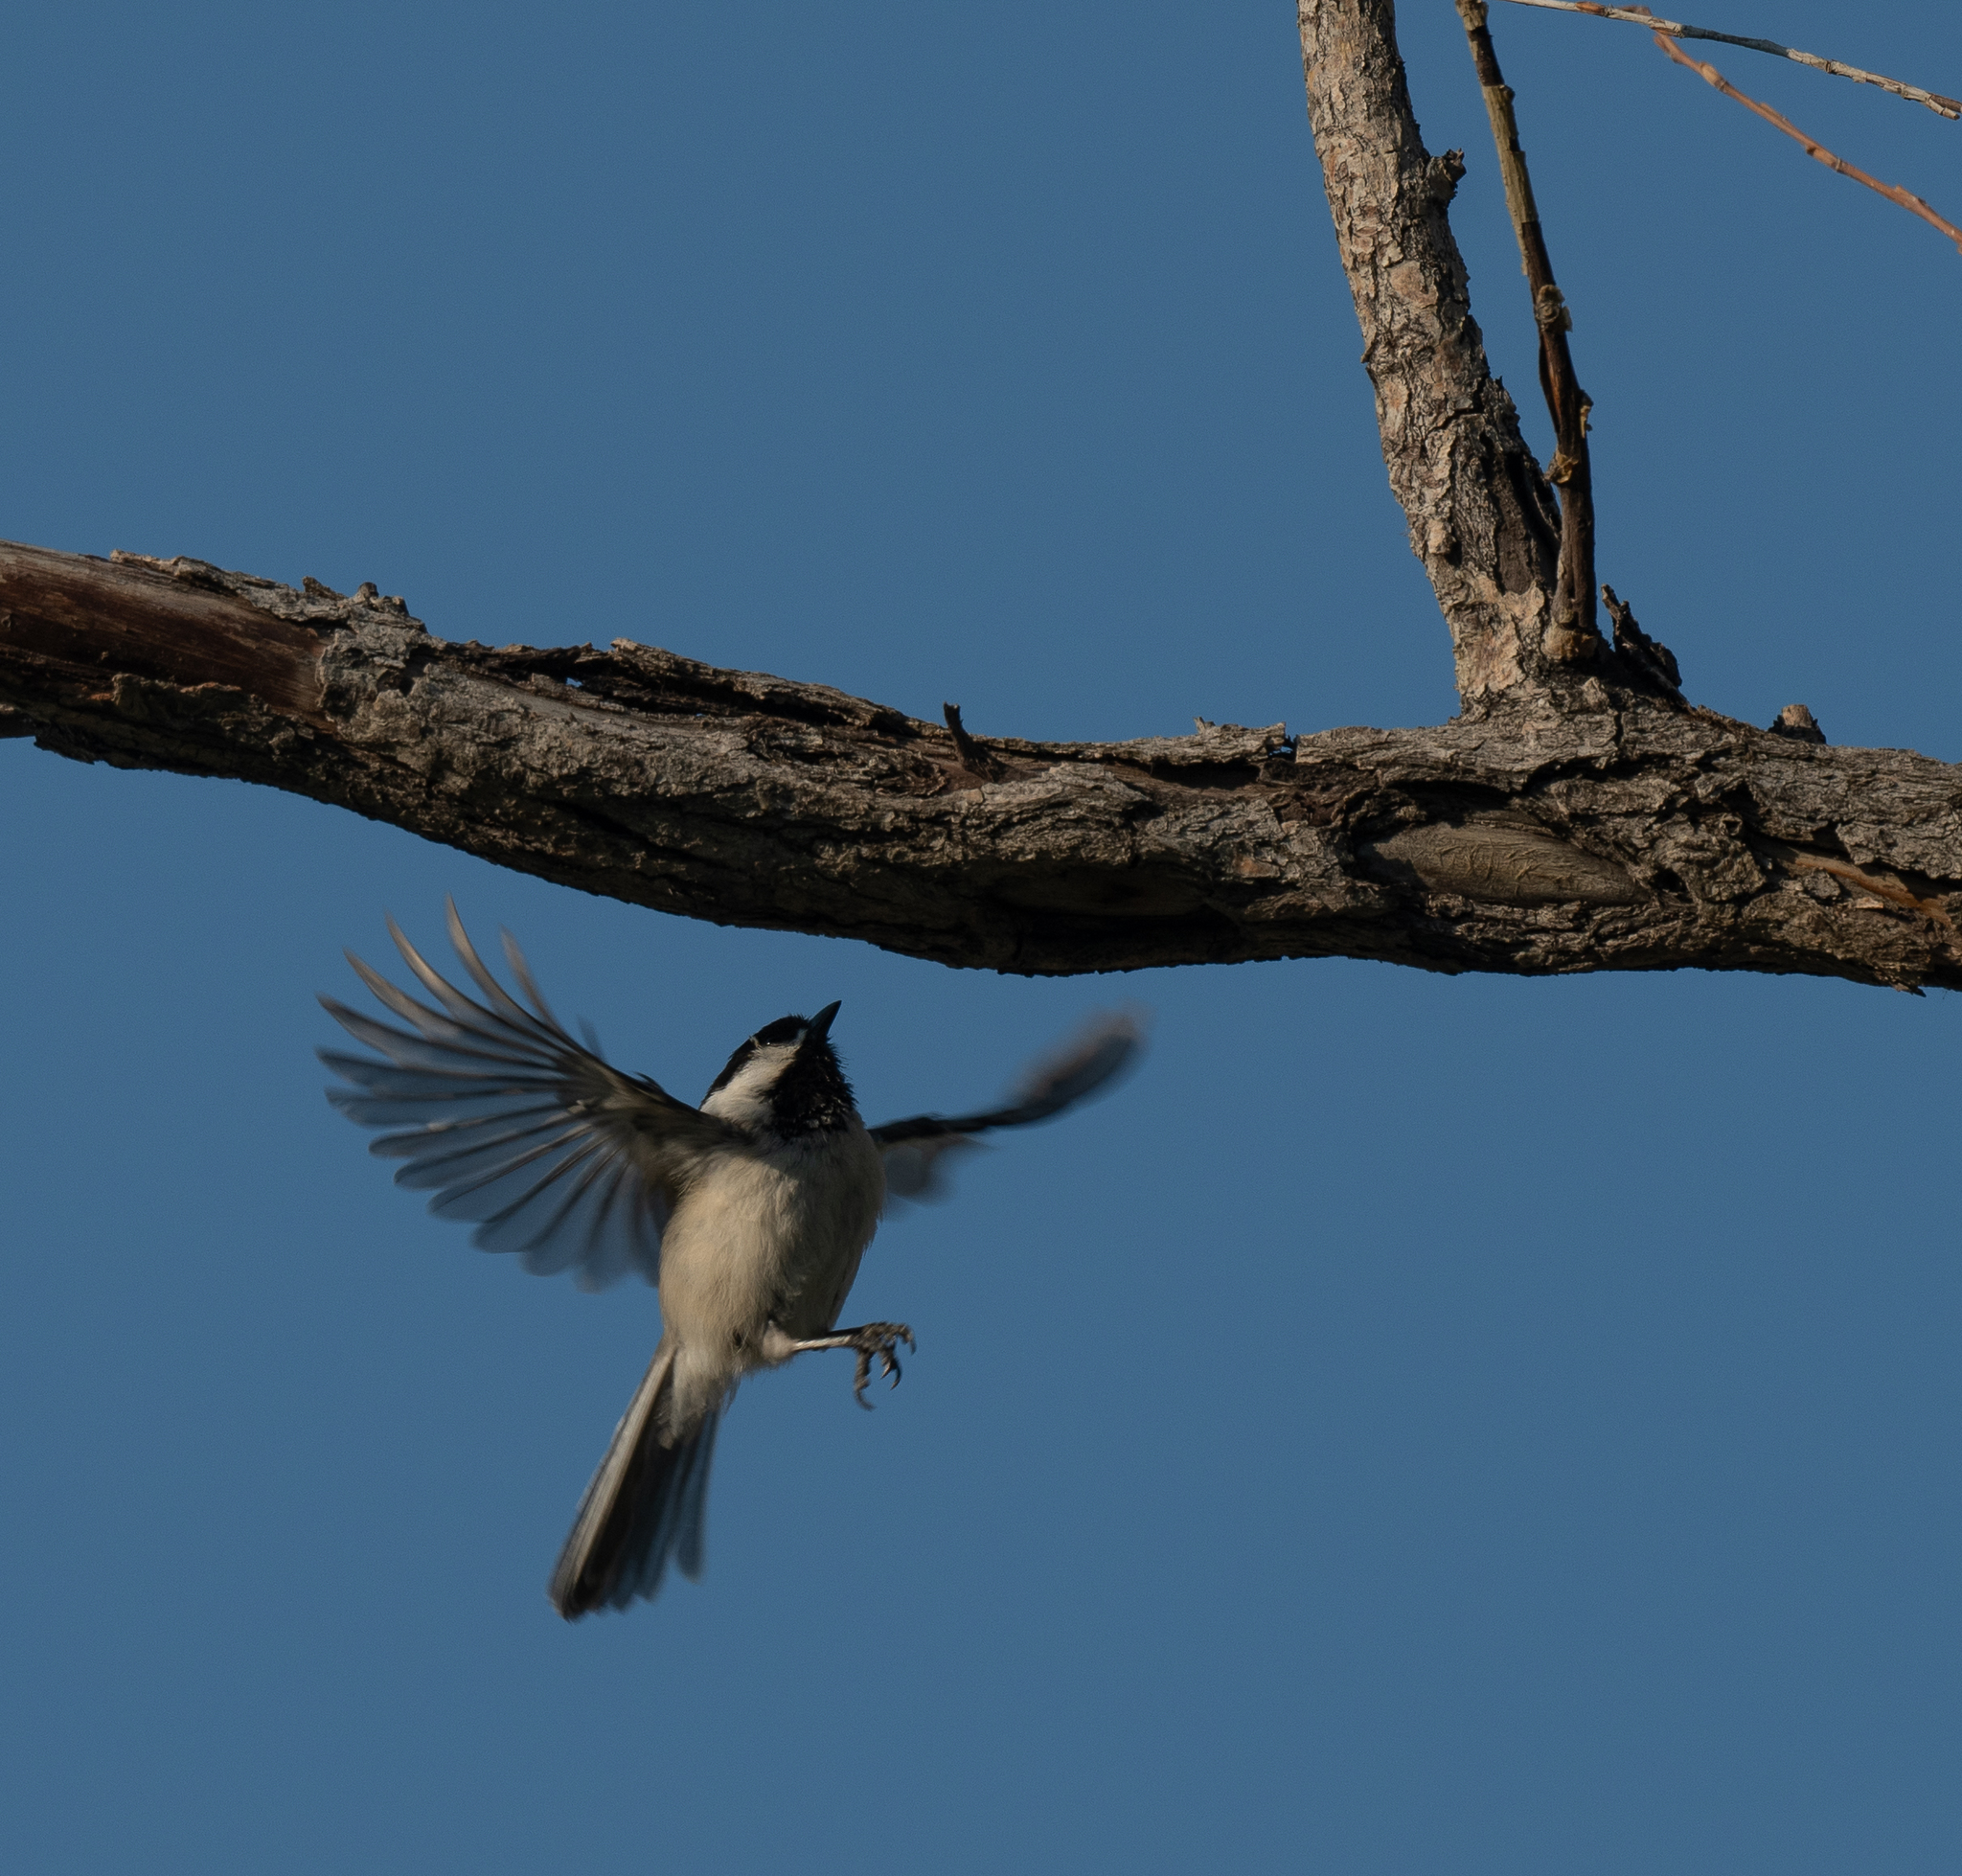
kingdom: Animalia
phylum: Chordata
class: Aves
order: Passeriformes
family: Paridae
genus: Poecile
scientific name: Poecile atricapillus
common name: Black-capped chickadee
